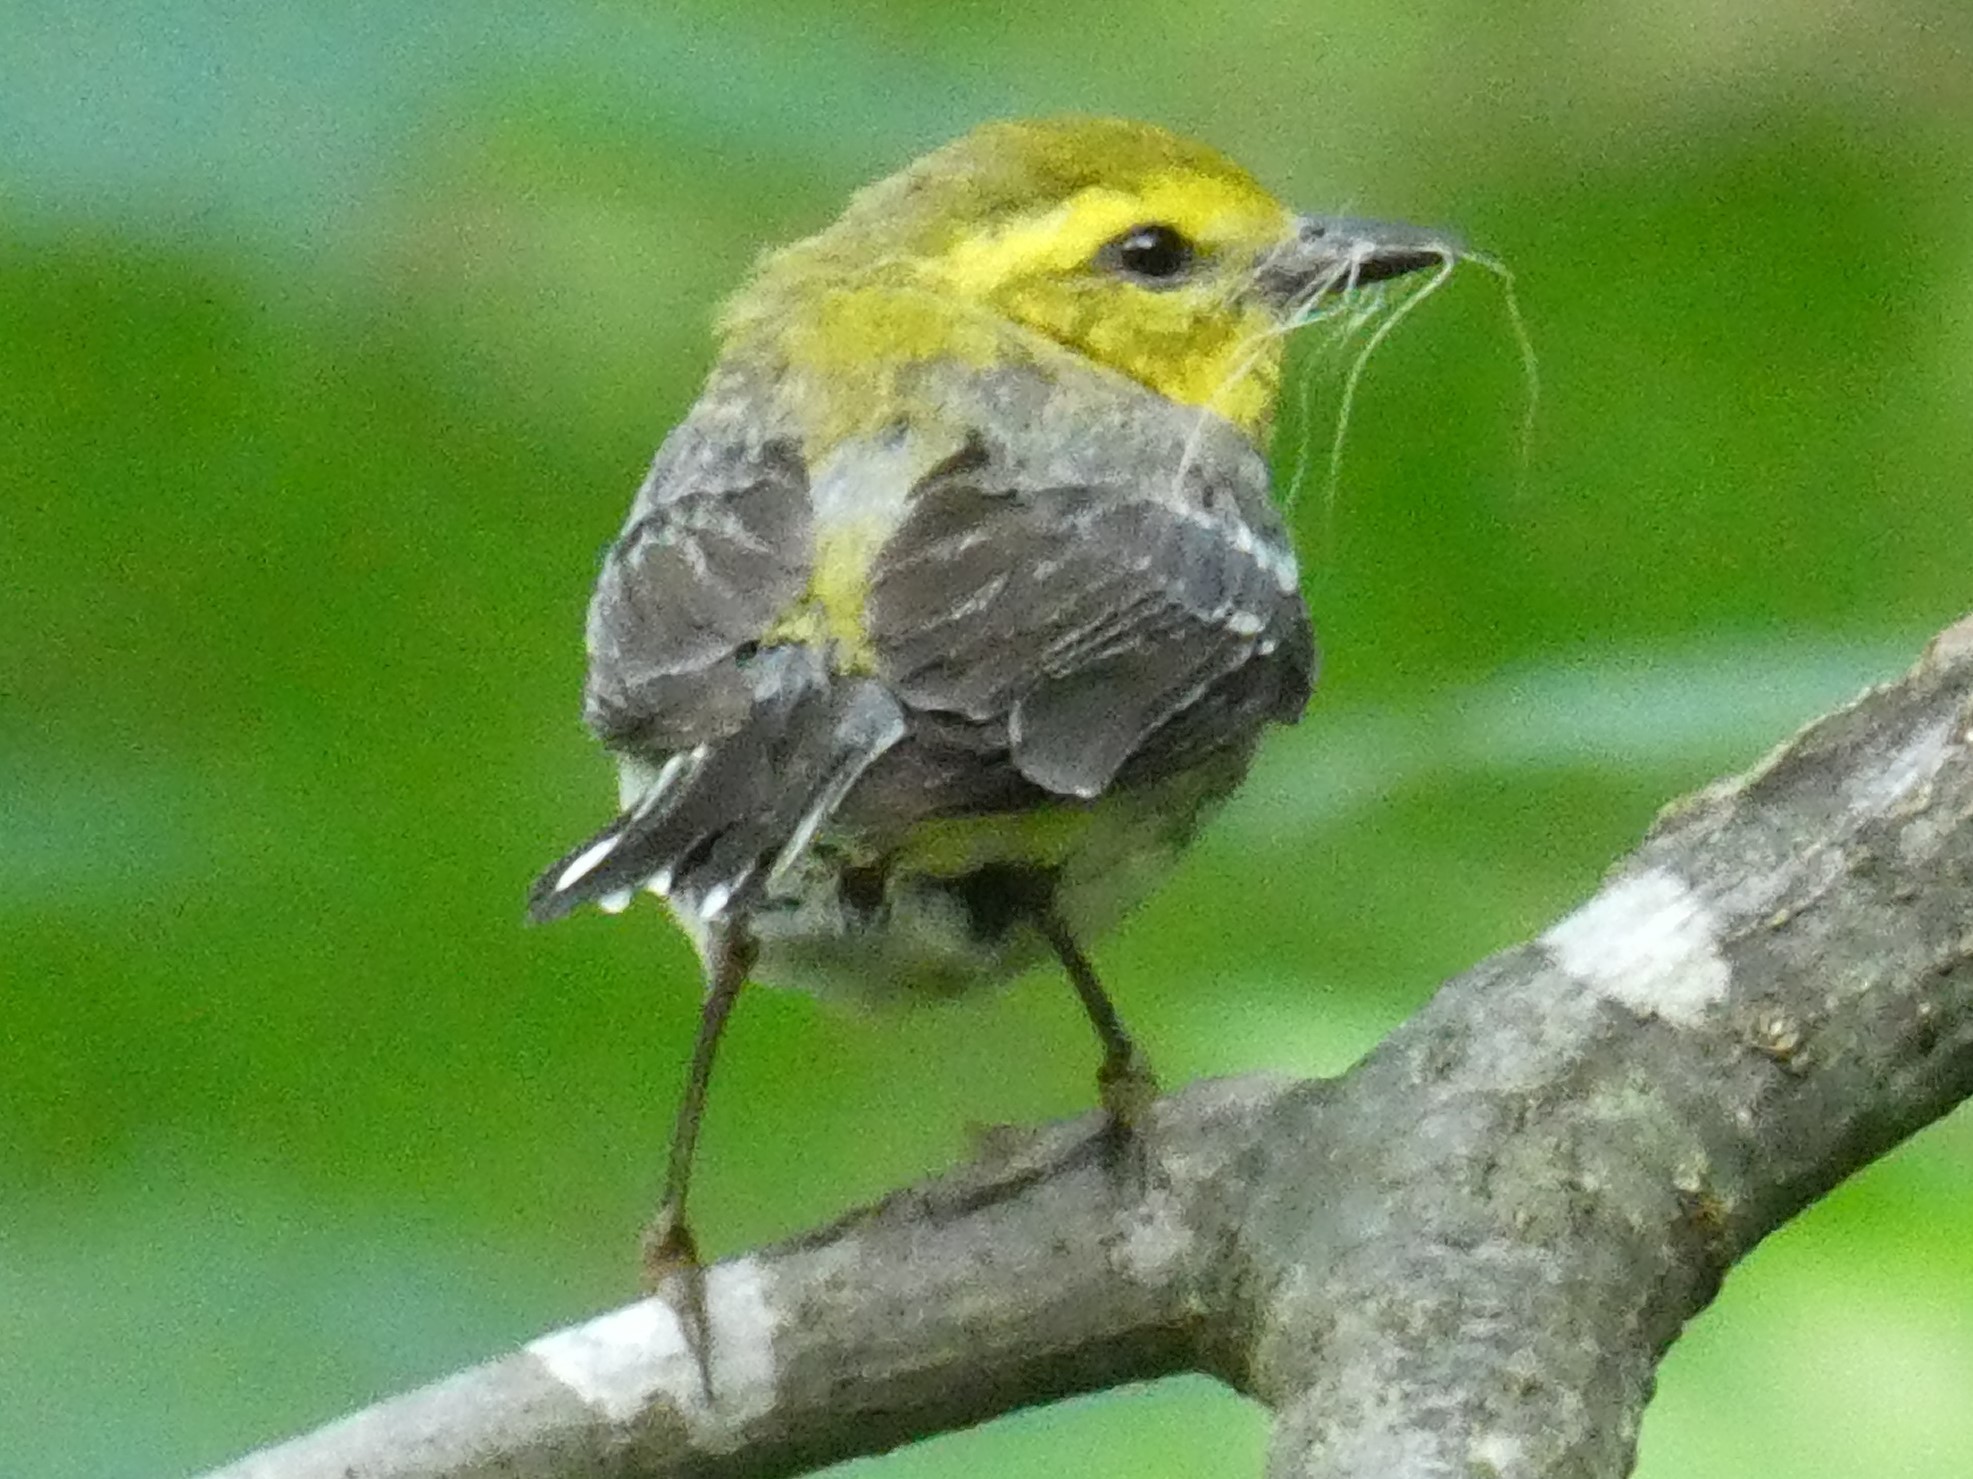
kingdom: Animalia
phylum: Chordata
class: Aves
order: Passeriformes
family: Parulidae
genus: Setophaga
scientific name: Setophaga virens
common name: Black-throated green warbler
